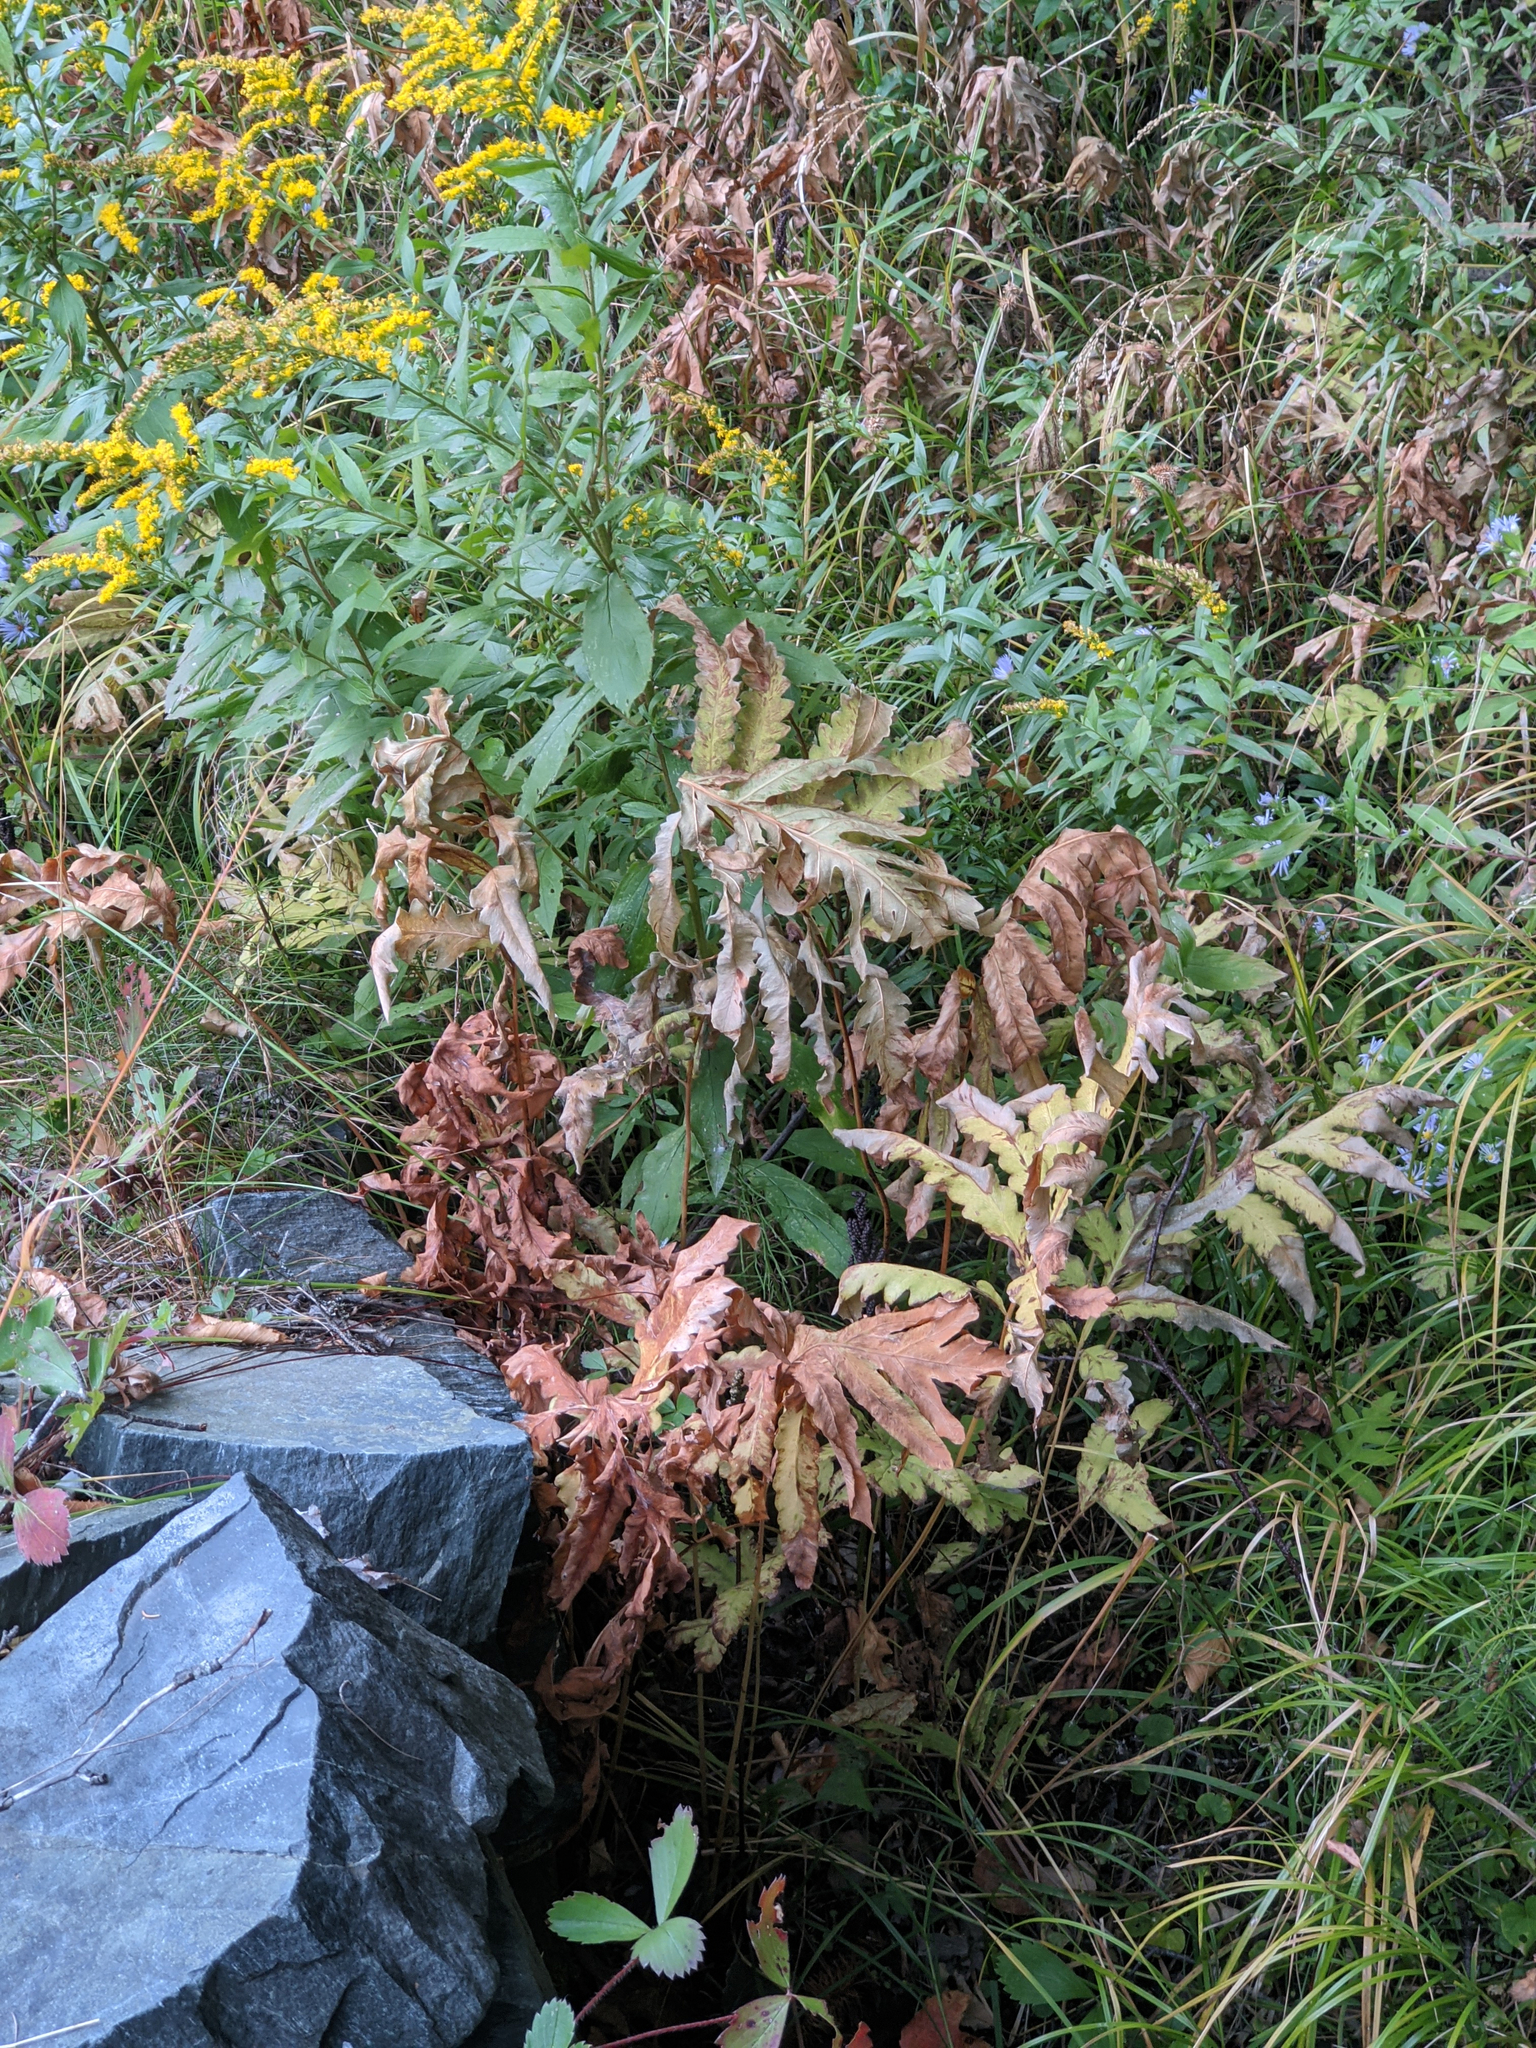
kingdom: Plantae
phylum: Tracheophyta
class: Polypodiopsida
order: Polypodiales
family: Onocleaceae
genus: Onoclea
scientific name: Onoclea sensibilis
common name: Sensitive fern
